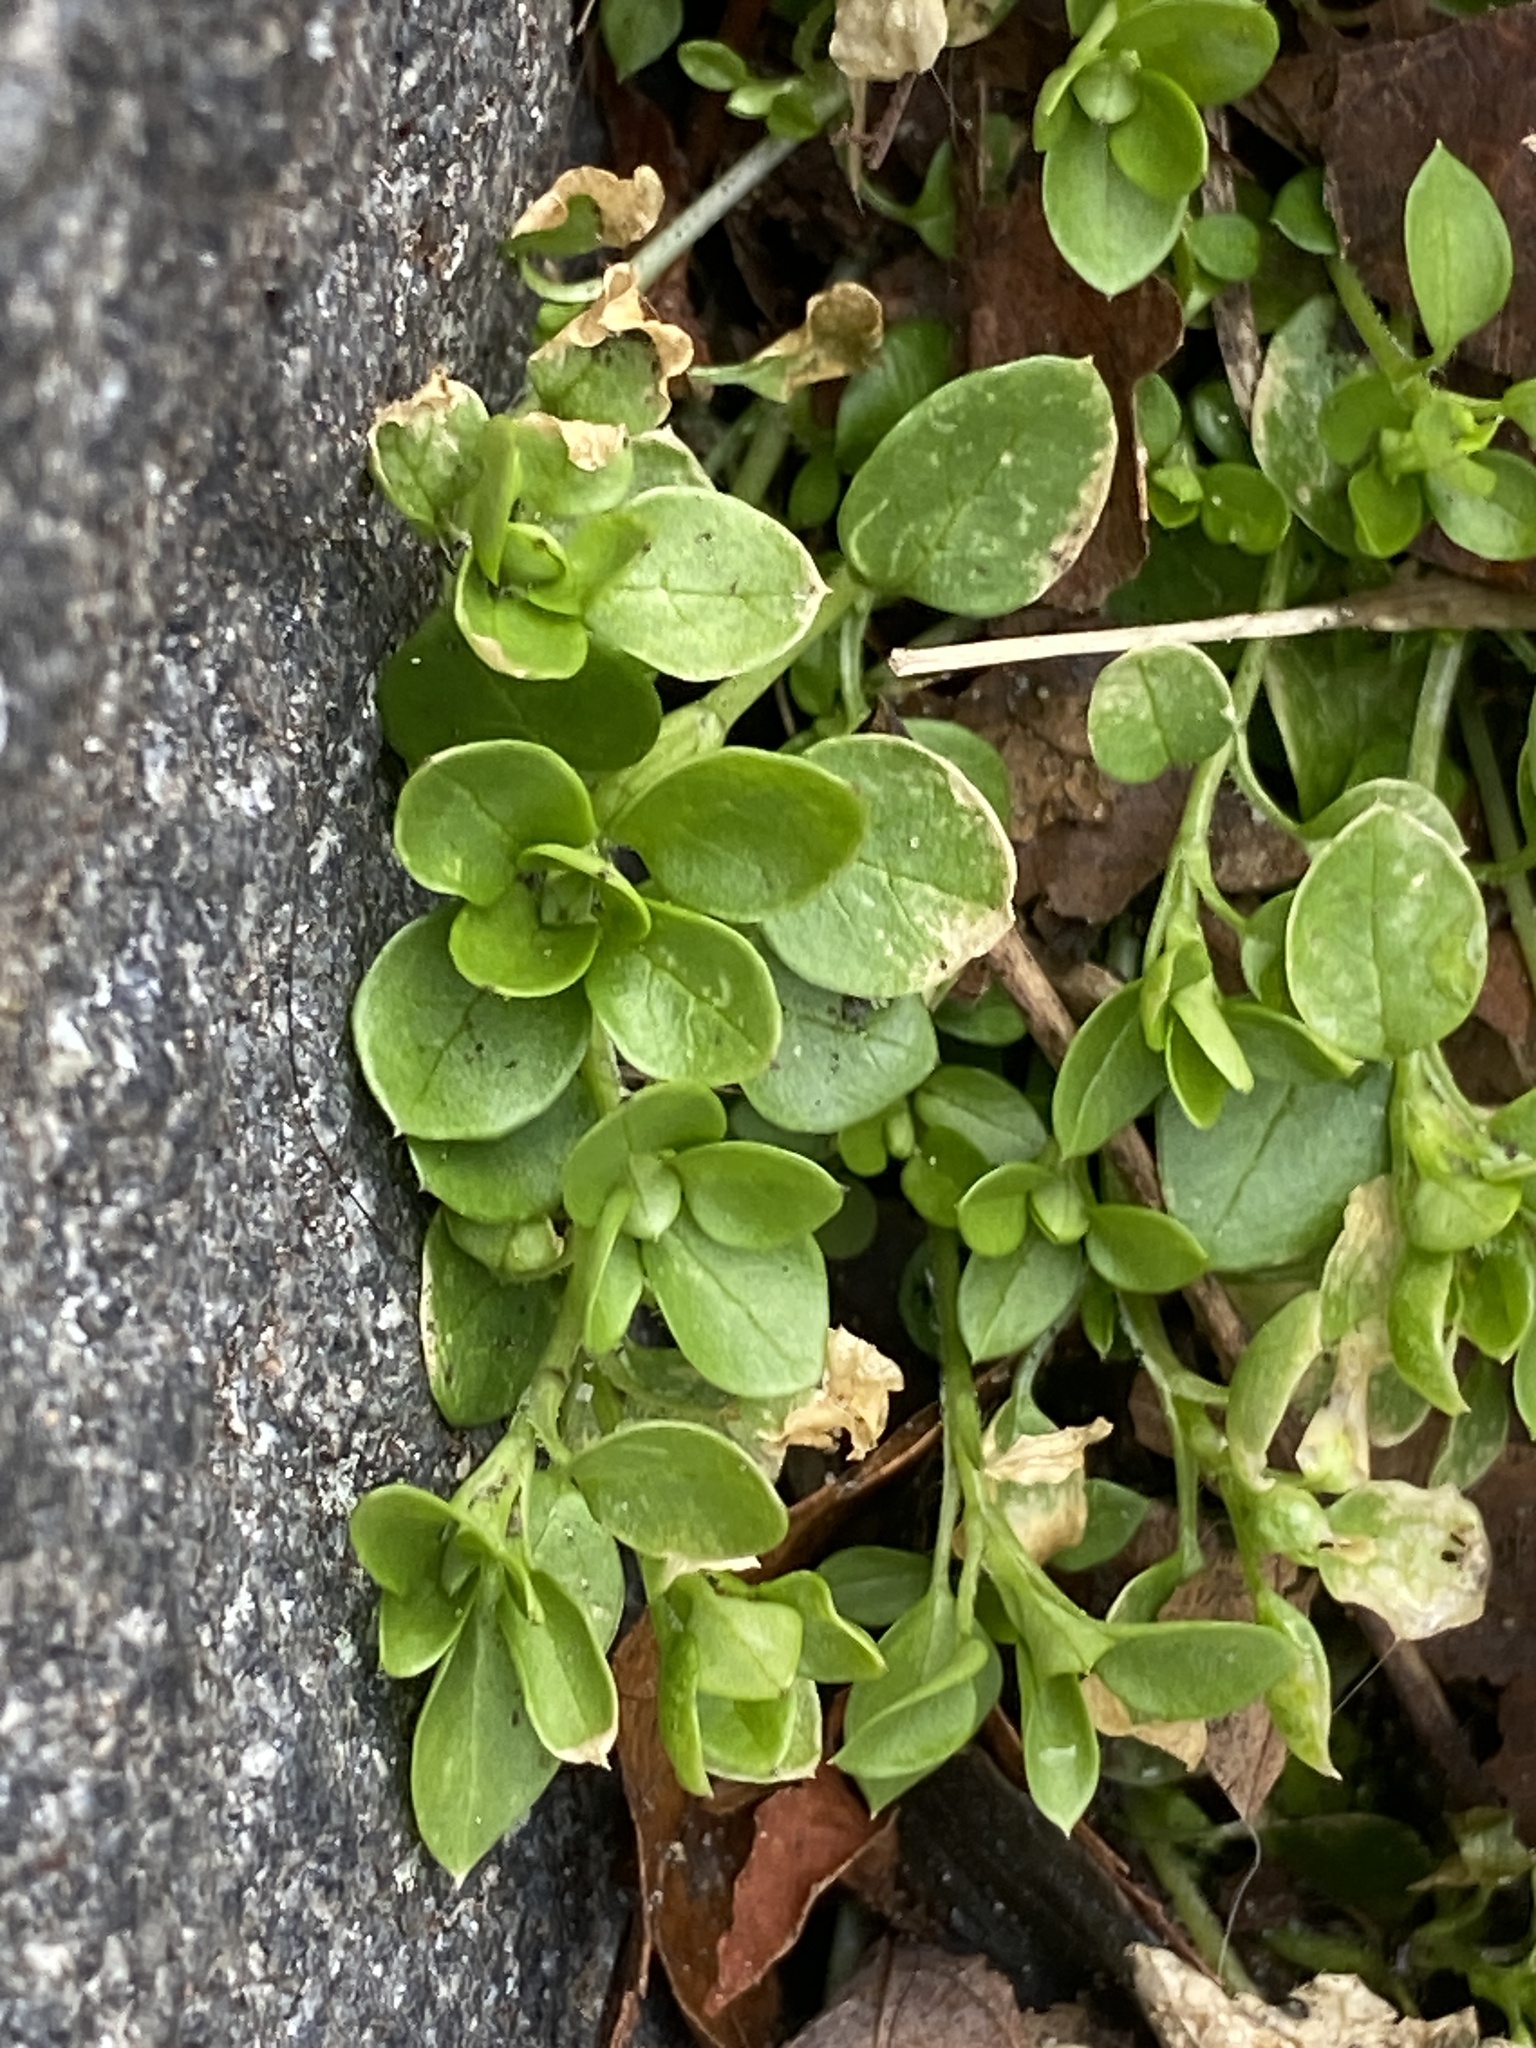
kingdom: Plantae
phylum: Tracheophyta
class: Magnoliopsida
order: Caryophyllales
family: Caryophyllaceae
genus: Stellaria
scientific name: Stellaria media
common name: Common chickweed
